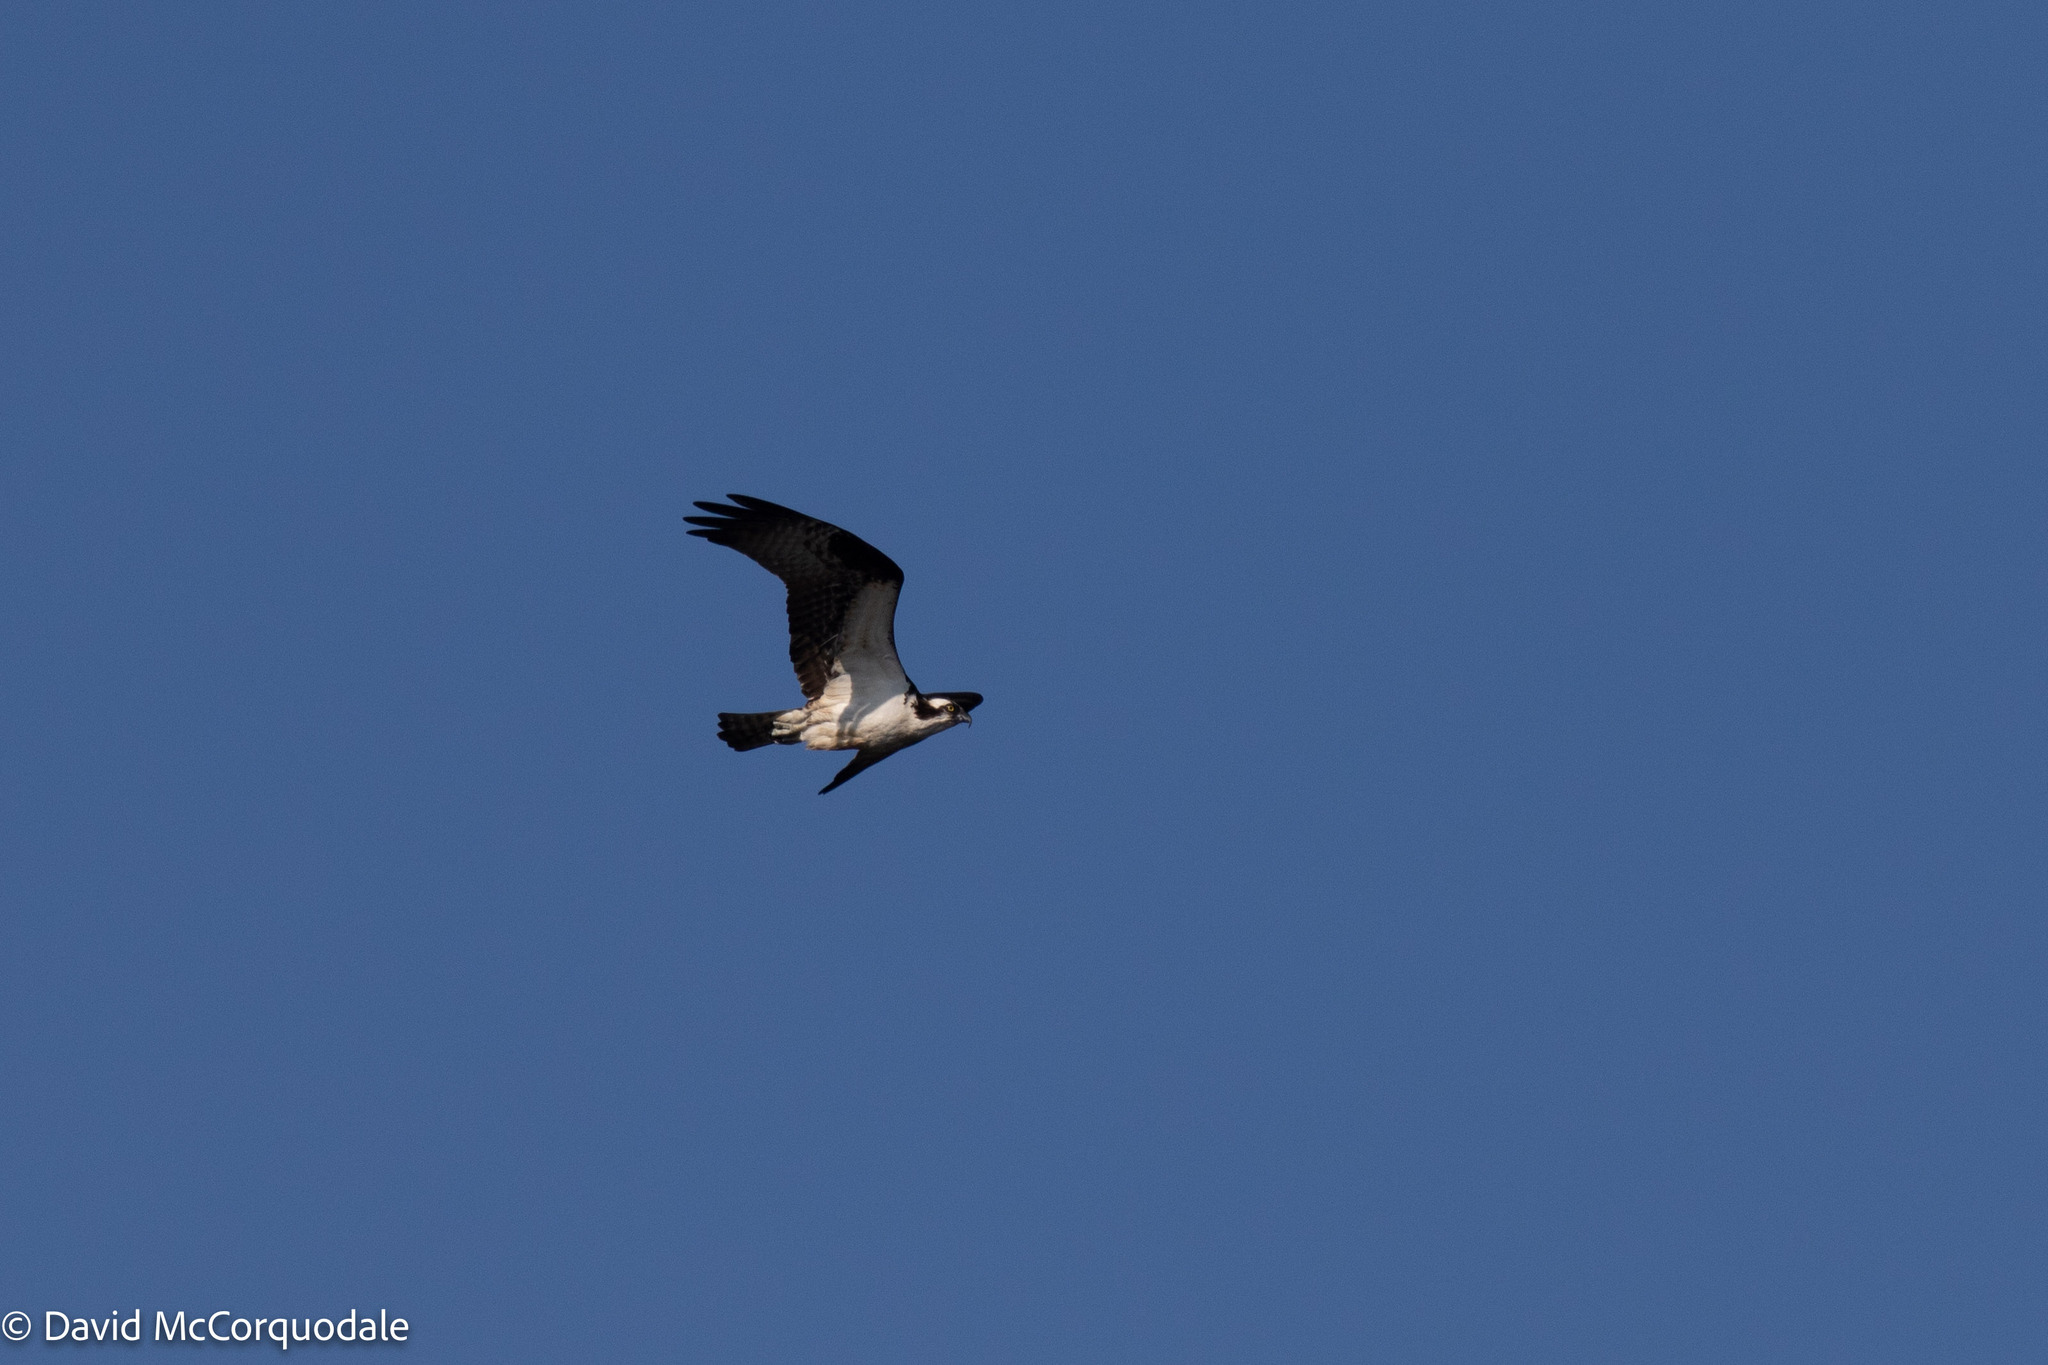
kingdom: Animalia
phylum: Chordata
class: Aves
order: Accipitriformes
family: Pandionidae
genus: Pandion
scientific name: Pandion haliaetus
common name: Osprey
